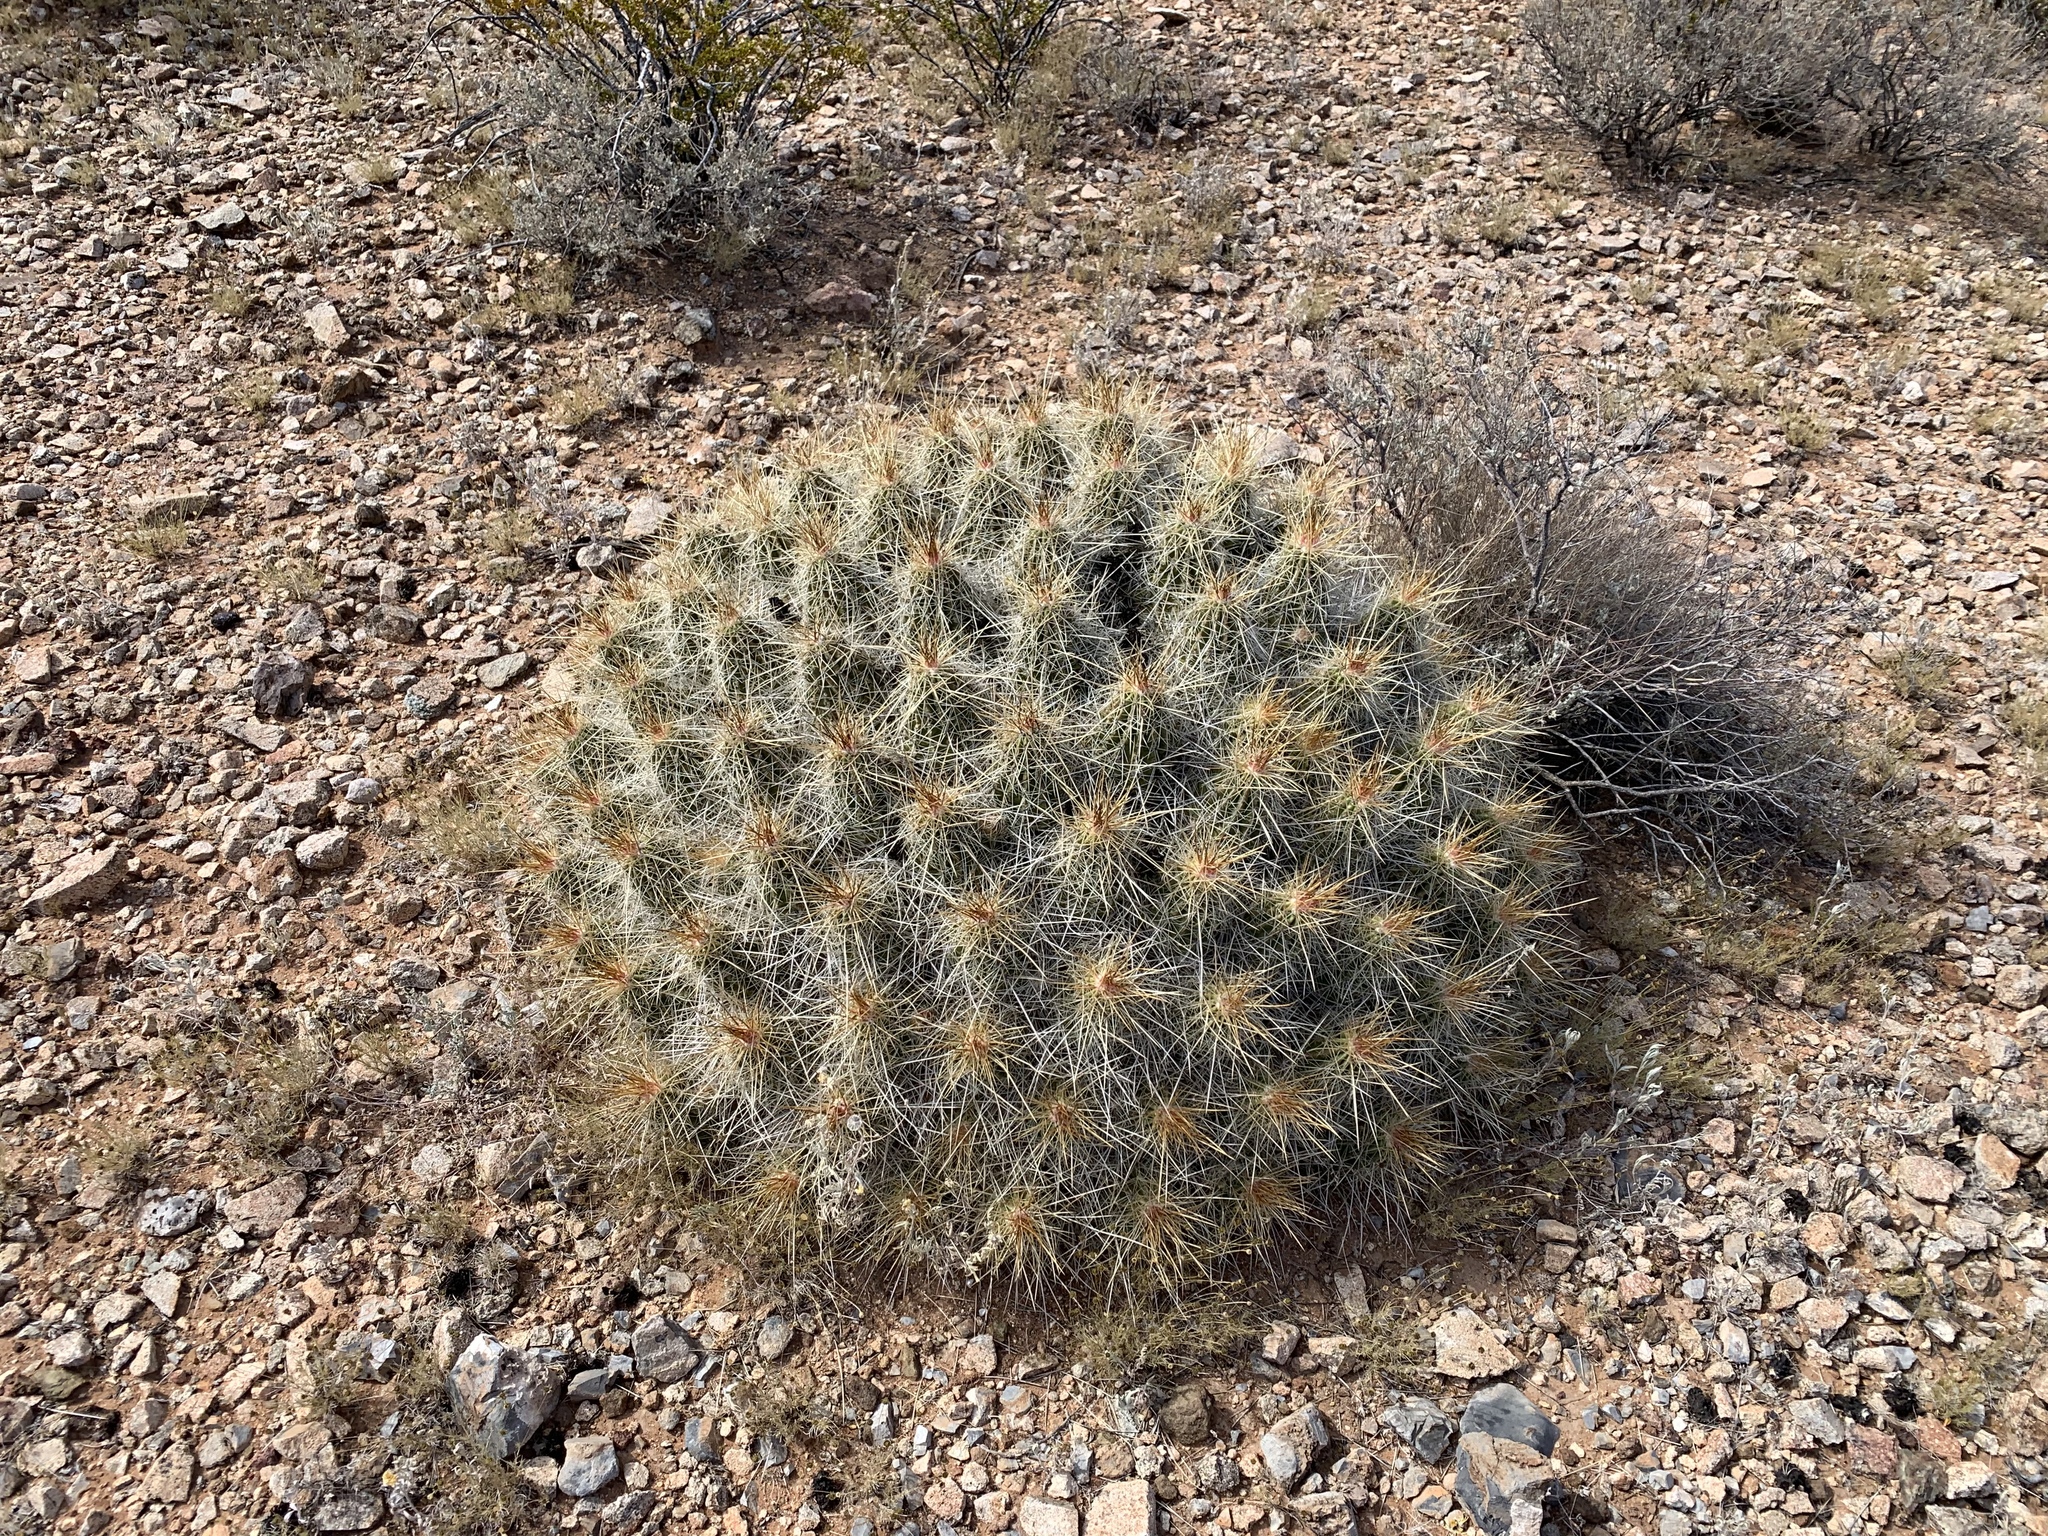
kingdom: Plantae
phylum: Tracheophyta
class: Magnoliopsida
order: Caryophyllales
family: Cactaceae
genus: Echinocereus
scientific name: Echinocereus stramineus
